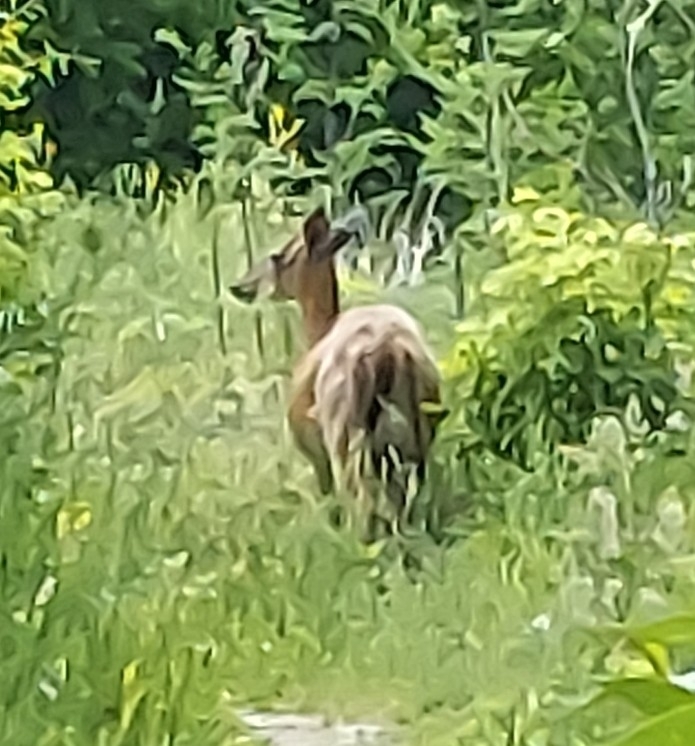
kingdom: Animalia
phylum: Chordata
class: Mammalia
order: Artiodactyla
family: Cervidae
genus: Odocoileus
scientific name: Odocoileus virginianus
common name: White-tailed deer
